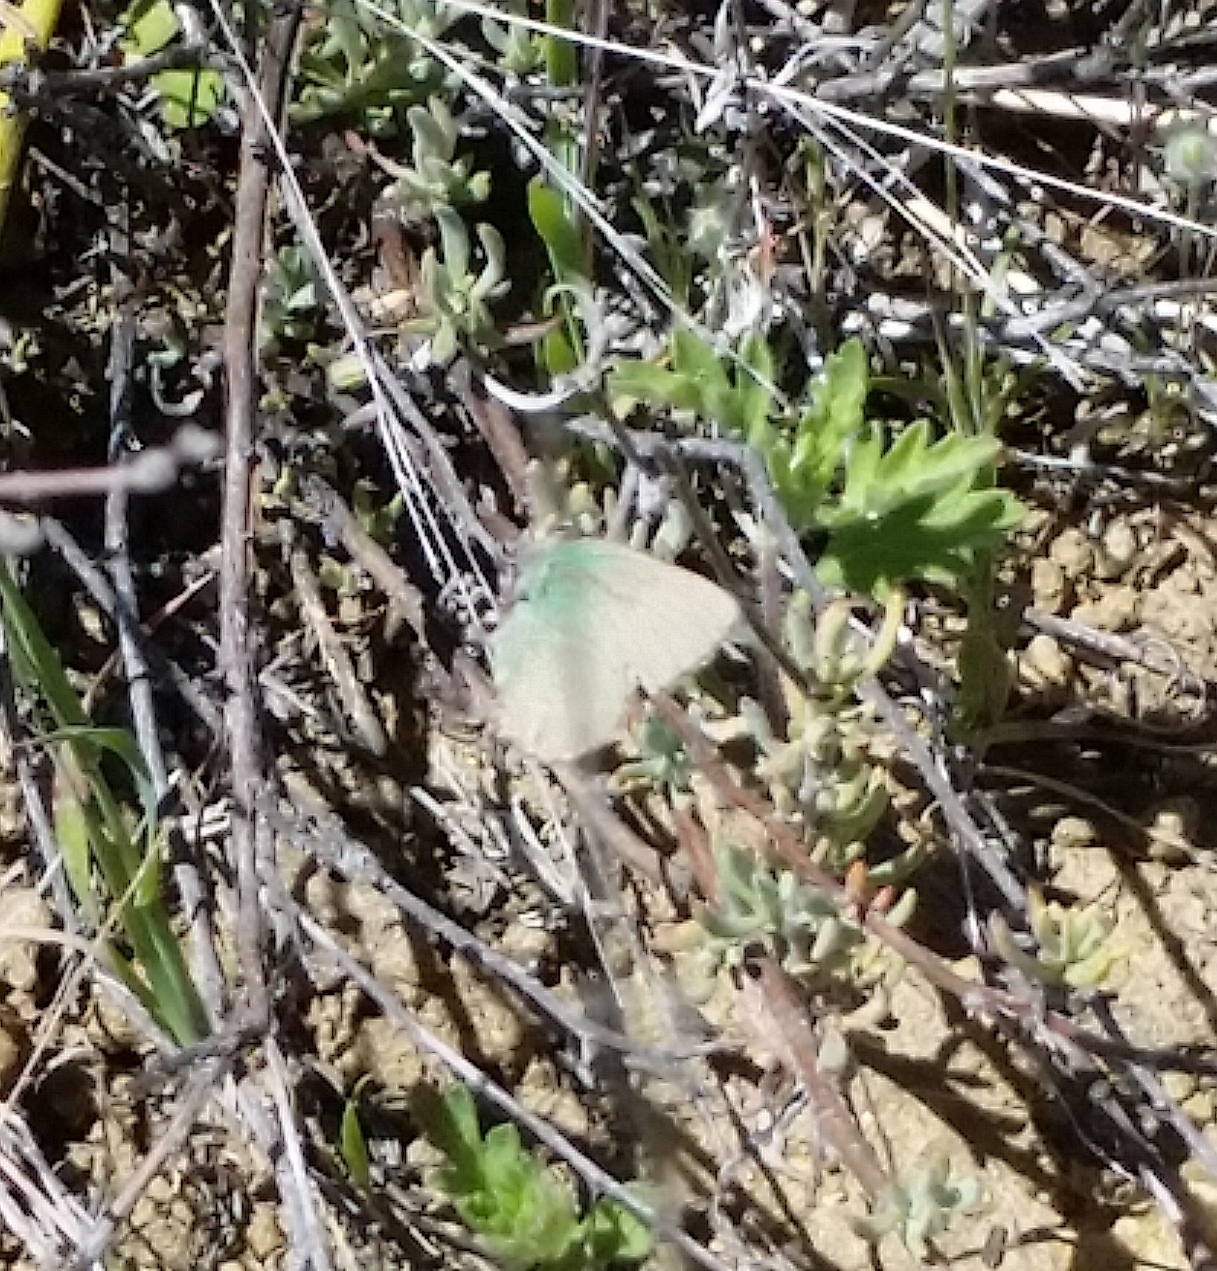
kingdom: Animalia
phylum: Arthropoda
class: Insecta
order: Lepidoptera
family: Lycaenidae
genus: Callophrys
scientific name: Callophrys dumetorum
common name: Bramble hairstreak
